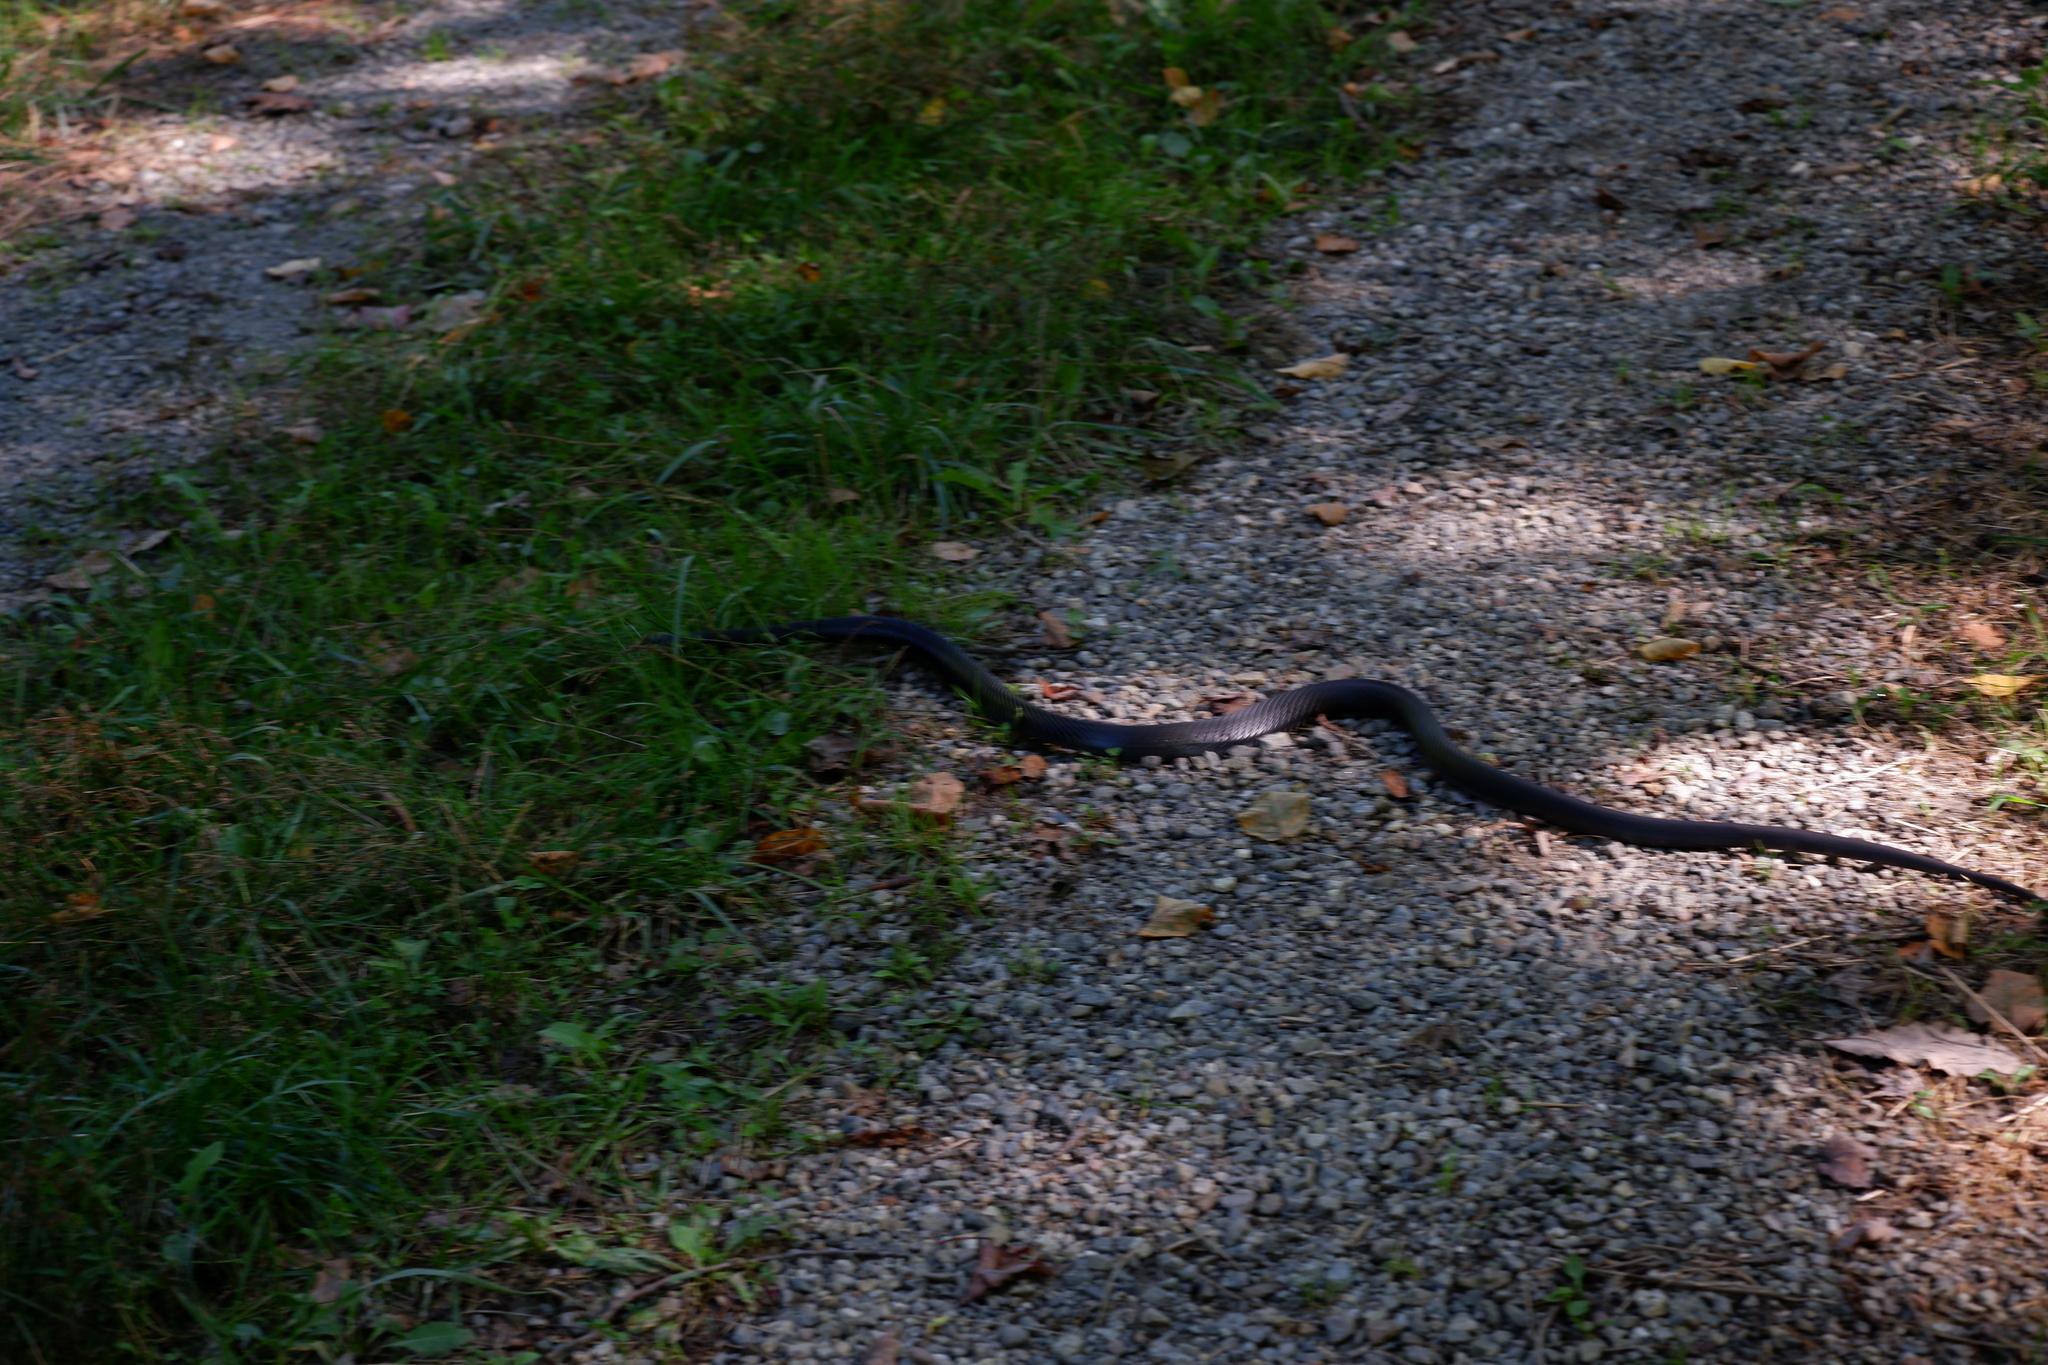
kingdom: Animalia
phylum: Chordata
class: Squamata
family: Colubridae
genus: Pantherophis
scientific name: Pantherophis alleghaniensis
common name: Eastern rat snake
